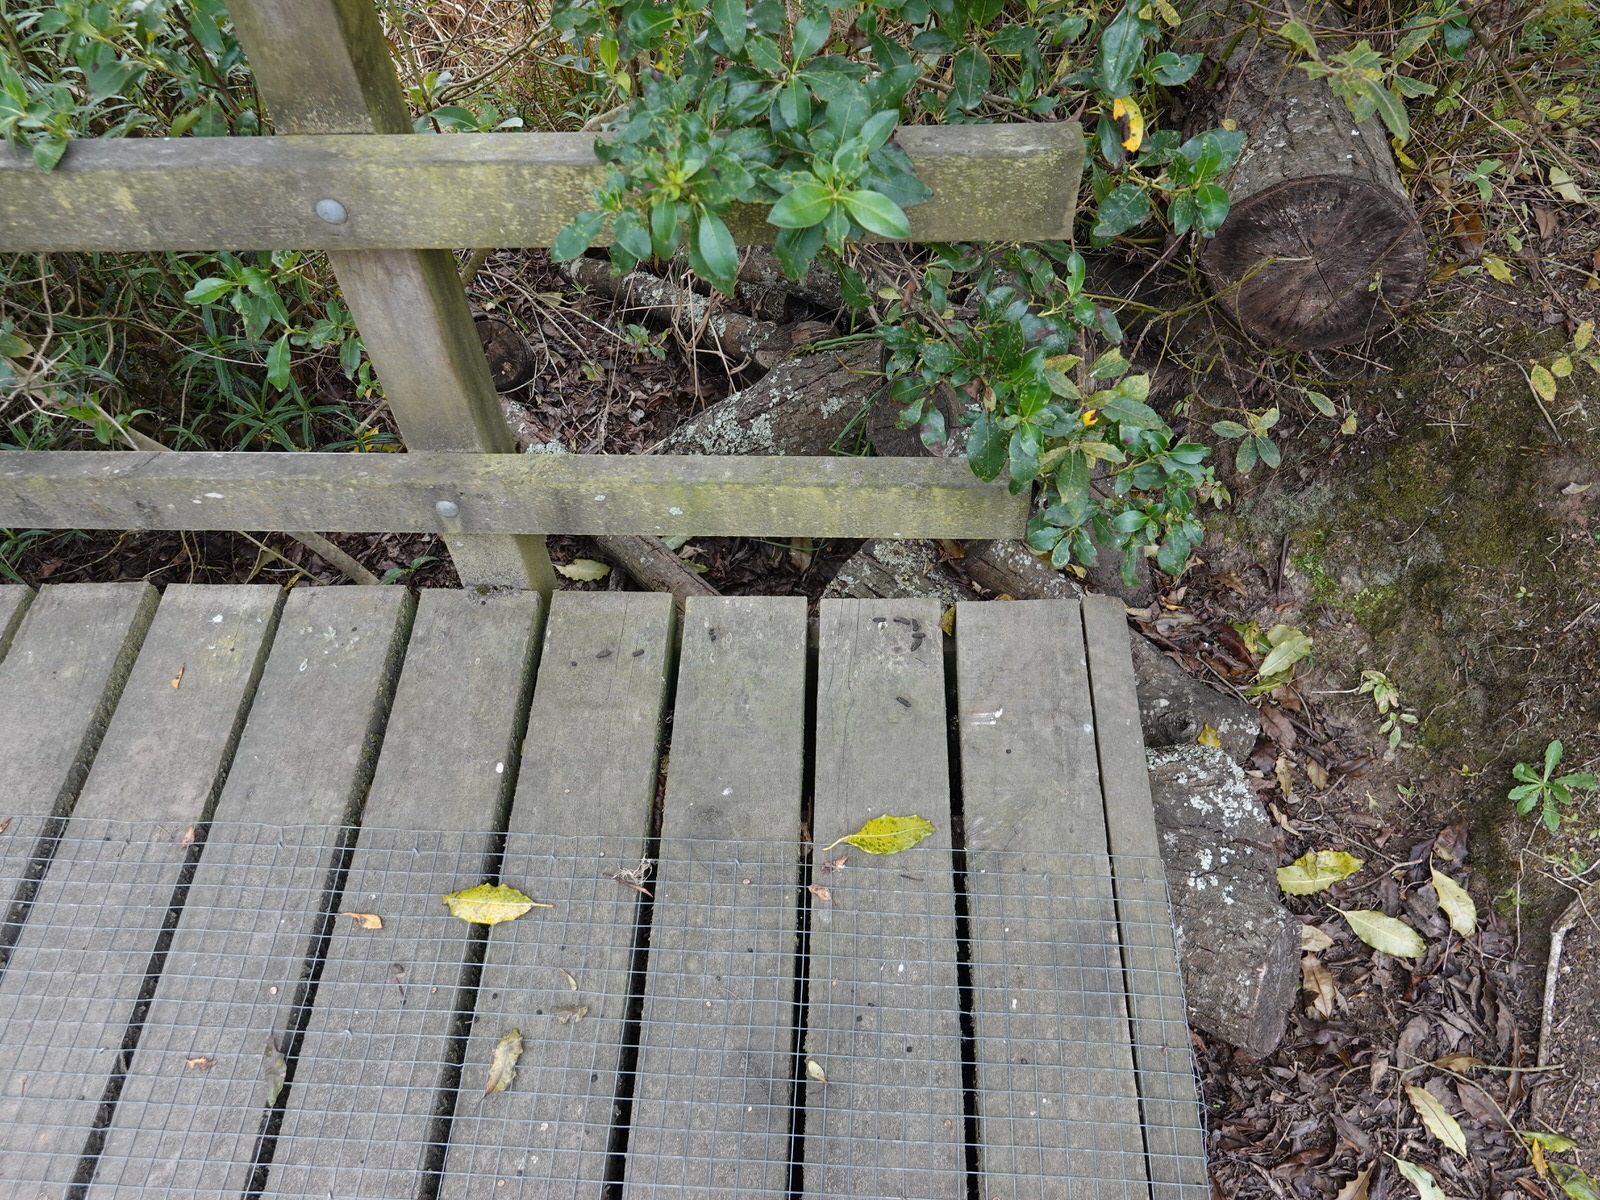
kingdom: Animalia
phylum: Chordata
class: Mammalia
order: Diprotodontia
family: Phalangeridae
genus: Trichosurus
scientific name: Trichosurus vulpecula
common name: Common brushtail
